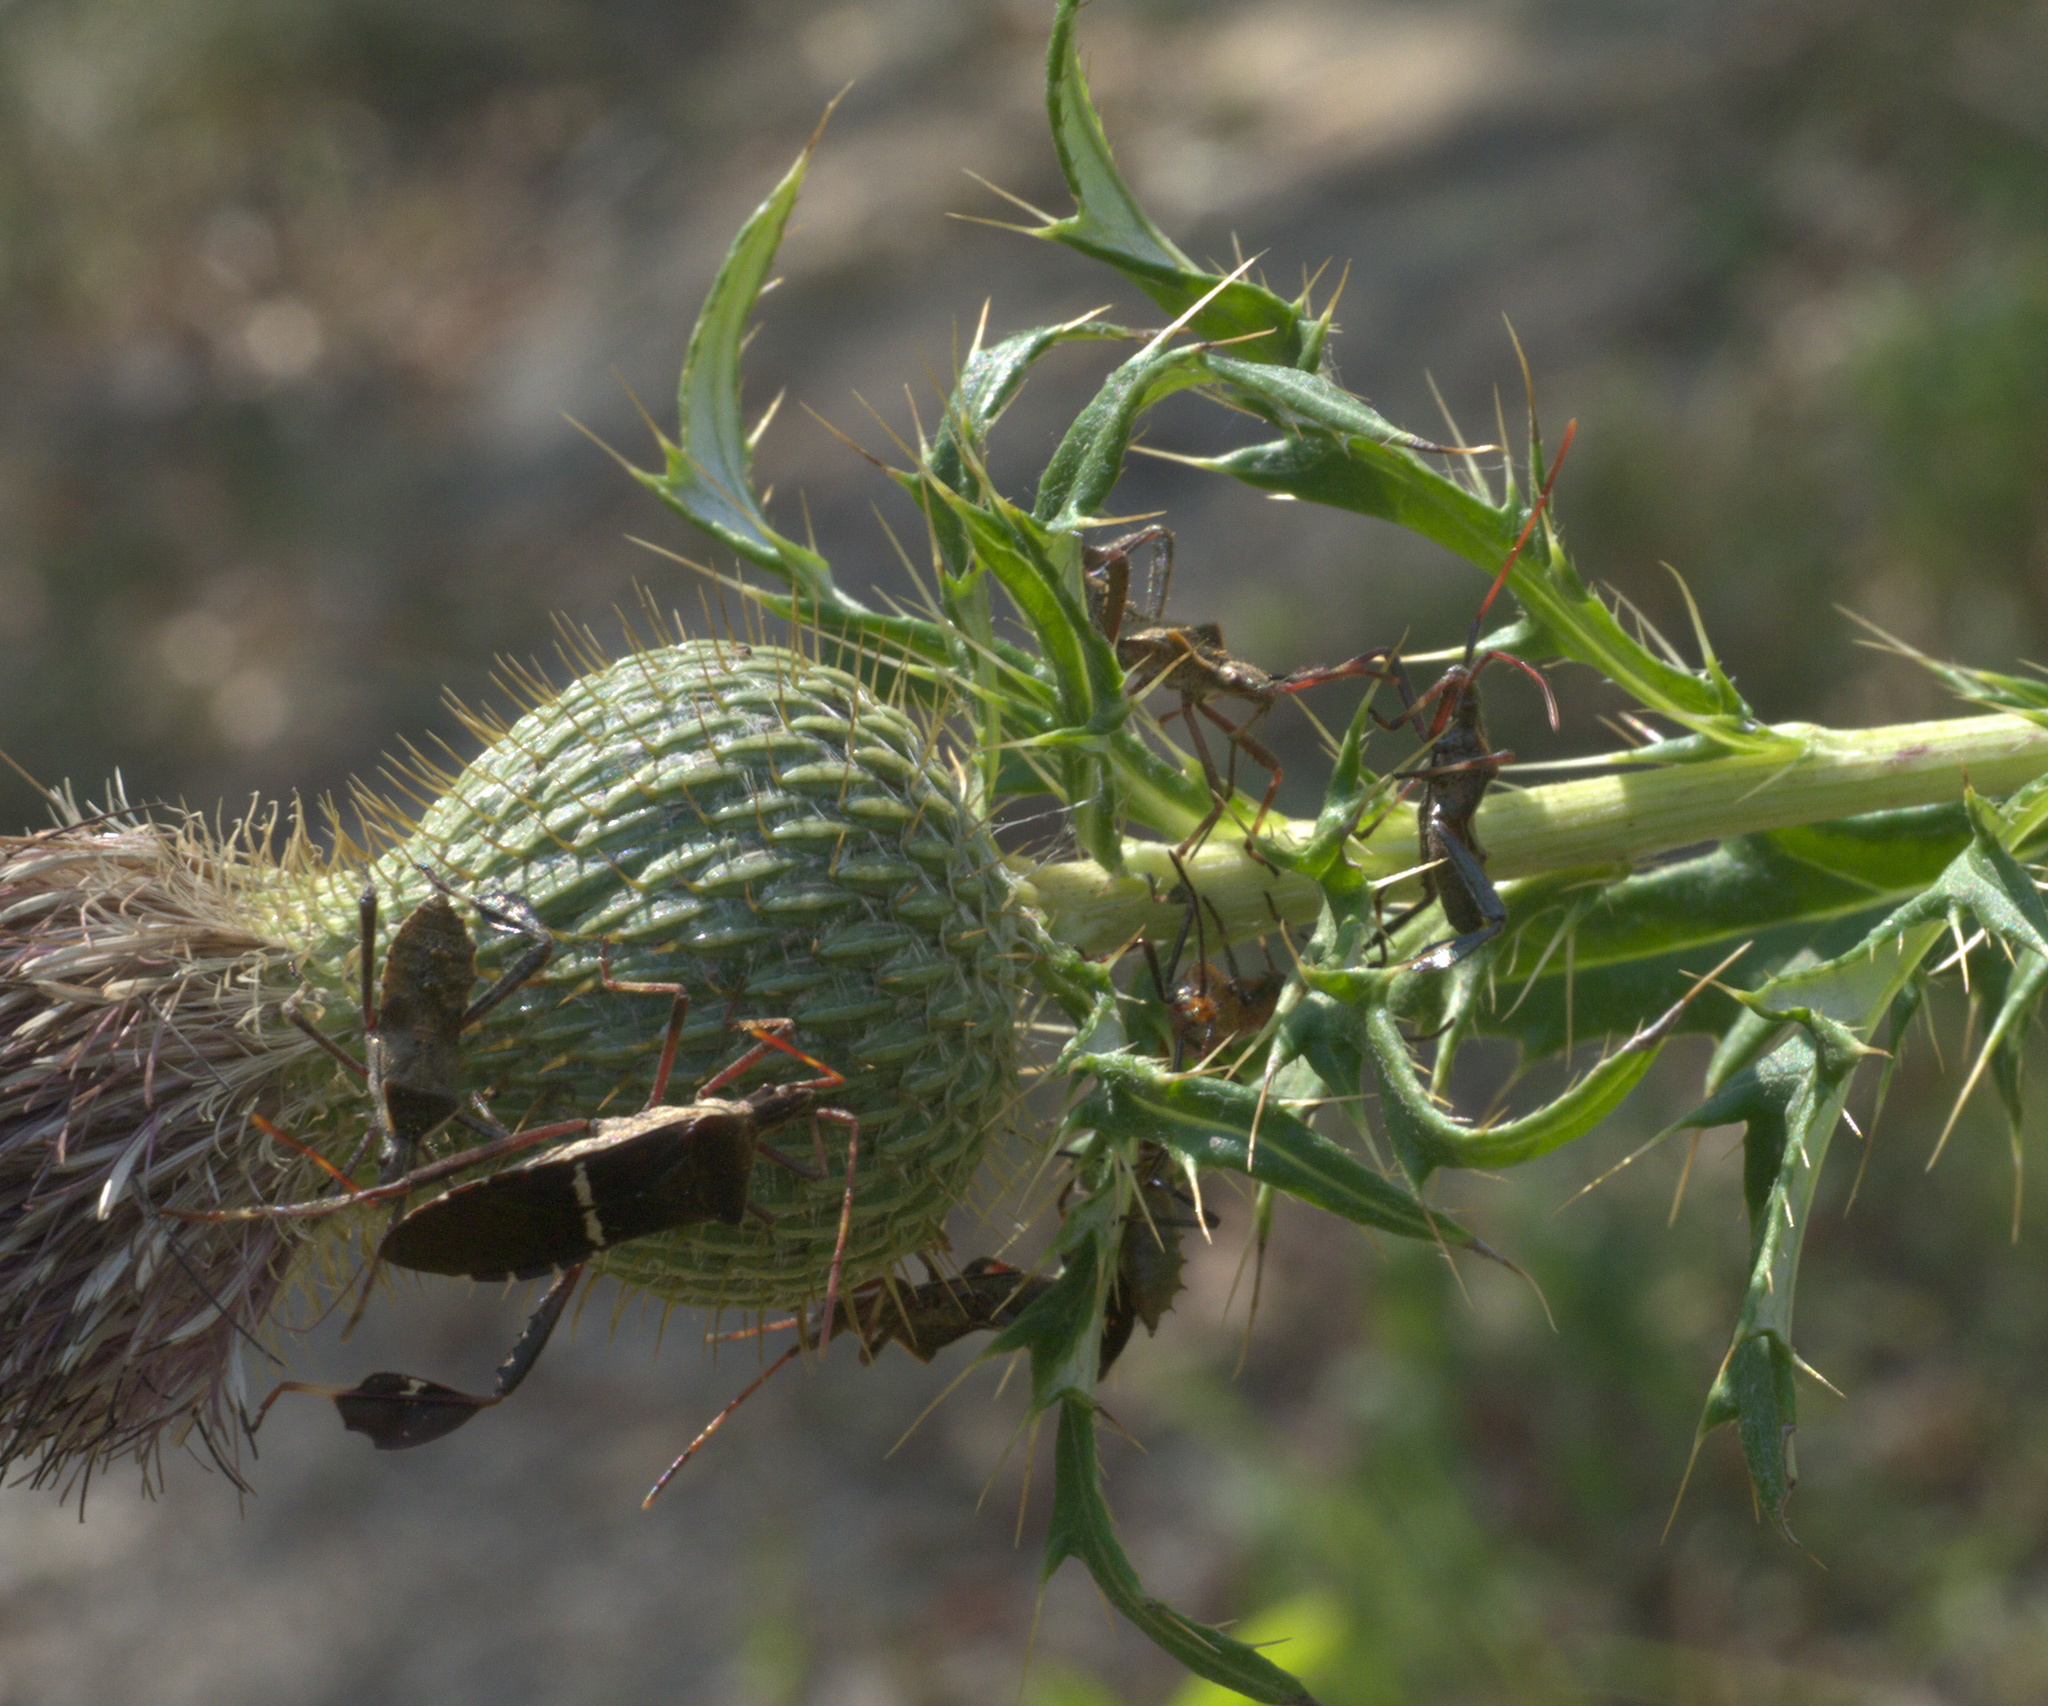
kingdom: Animalia
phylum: Arthropoda
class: Insecta
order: Hemiptera
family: Coreidae
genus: Leptoglossus
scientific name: Leptoglossus phyllopus
